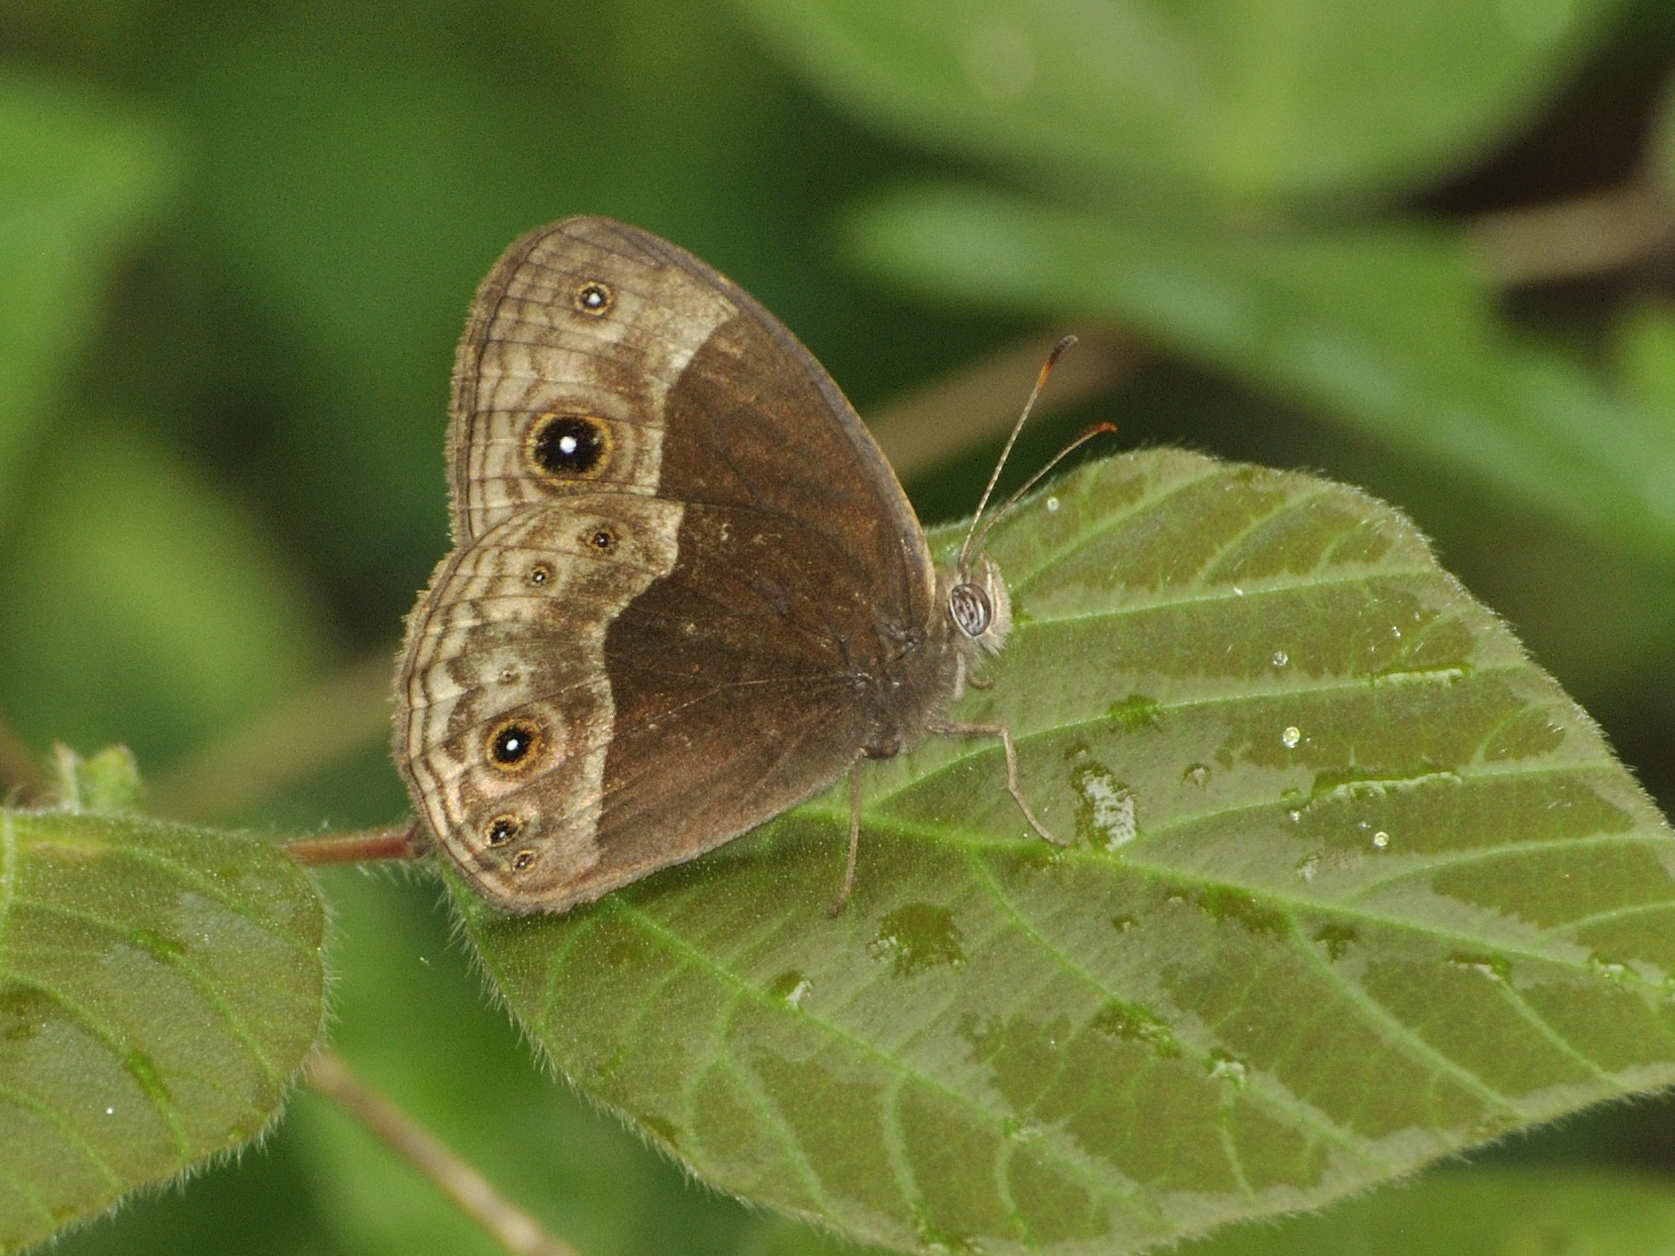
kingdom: Animalia
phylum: Arthropoda
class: Insecta
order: Lepidoptera
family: Nymphalidae
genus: Bicyclus
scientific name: Bicyclus campina
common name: Chirinda bush brown
